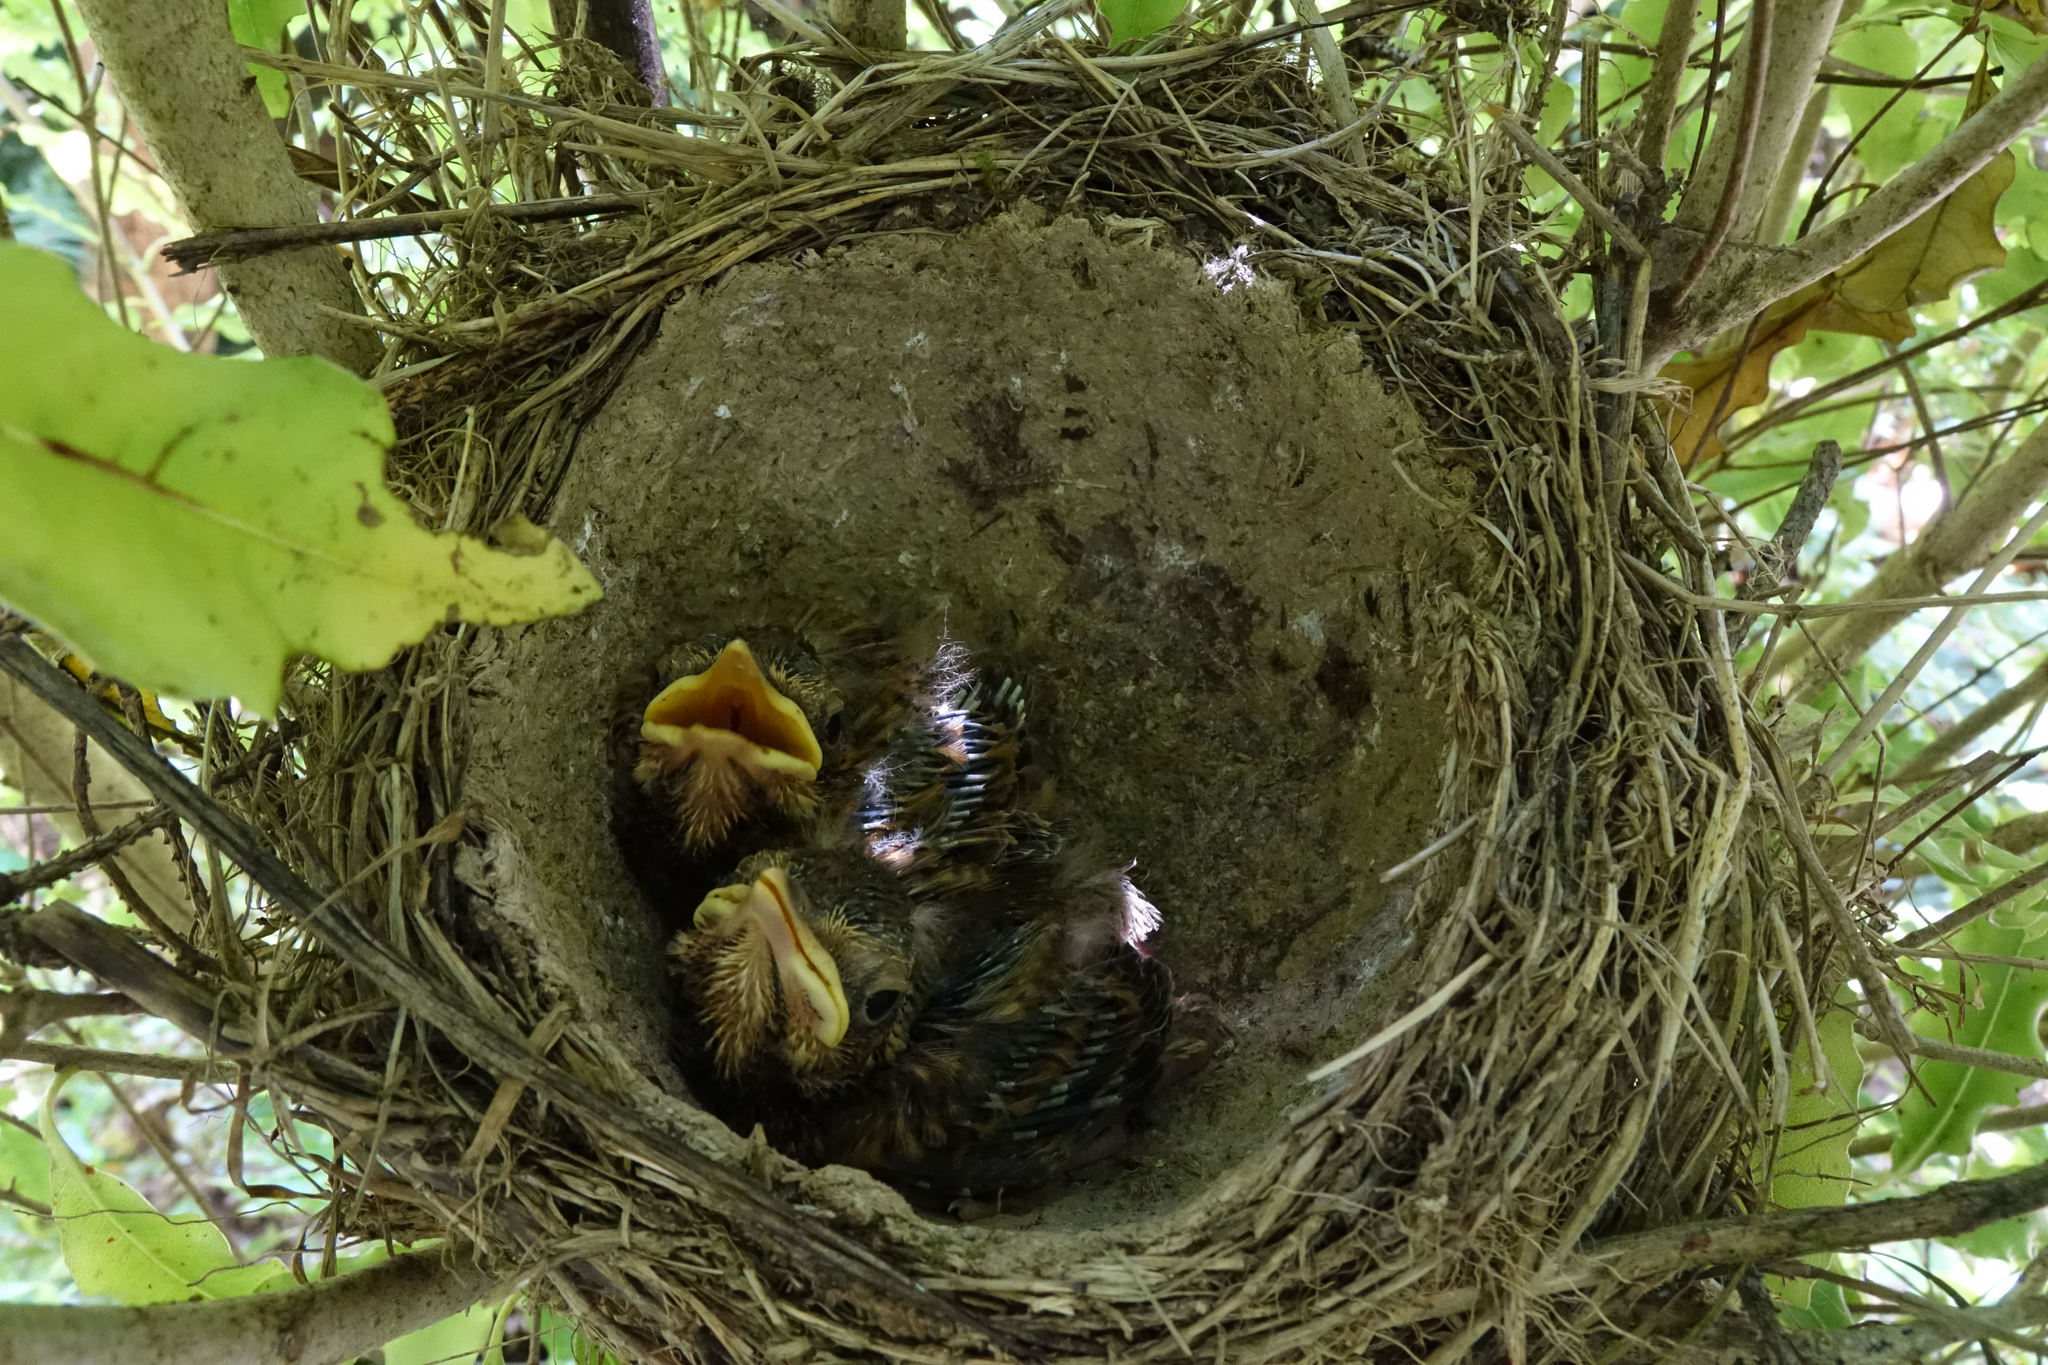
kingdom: Animalia
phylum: Chordata
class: Aves
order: Passeriformes
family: Turdidae
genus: Turdus
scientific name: Turdus philomelos
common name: Song thrush
